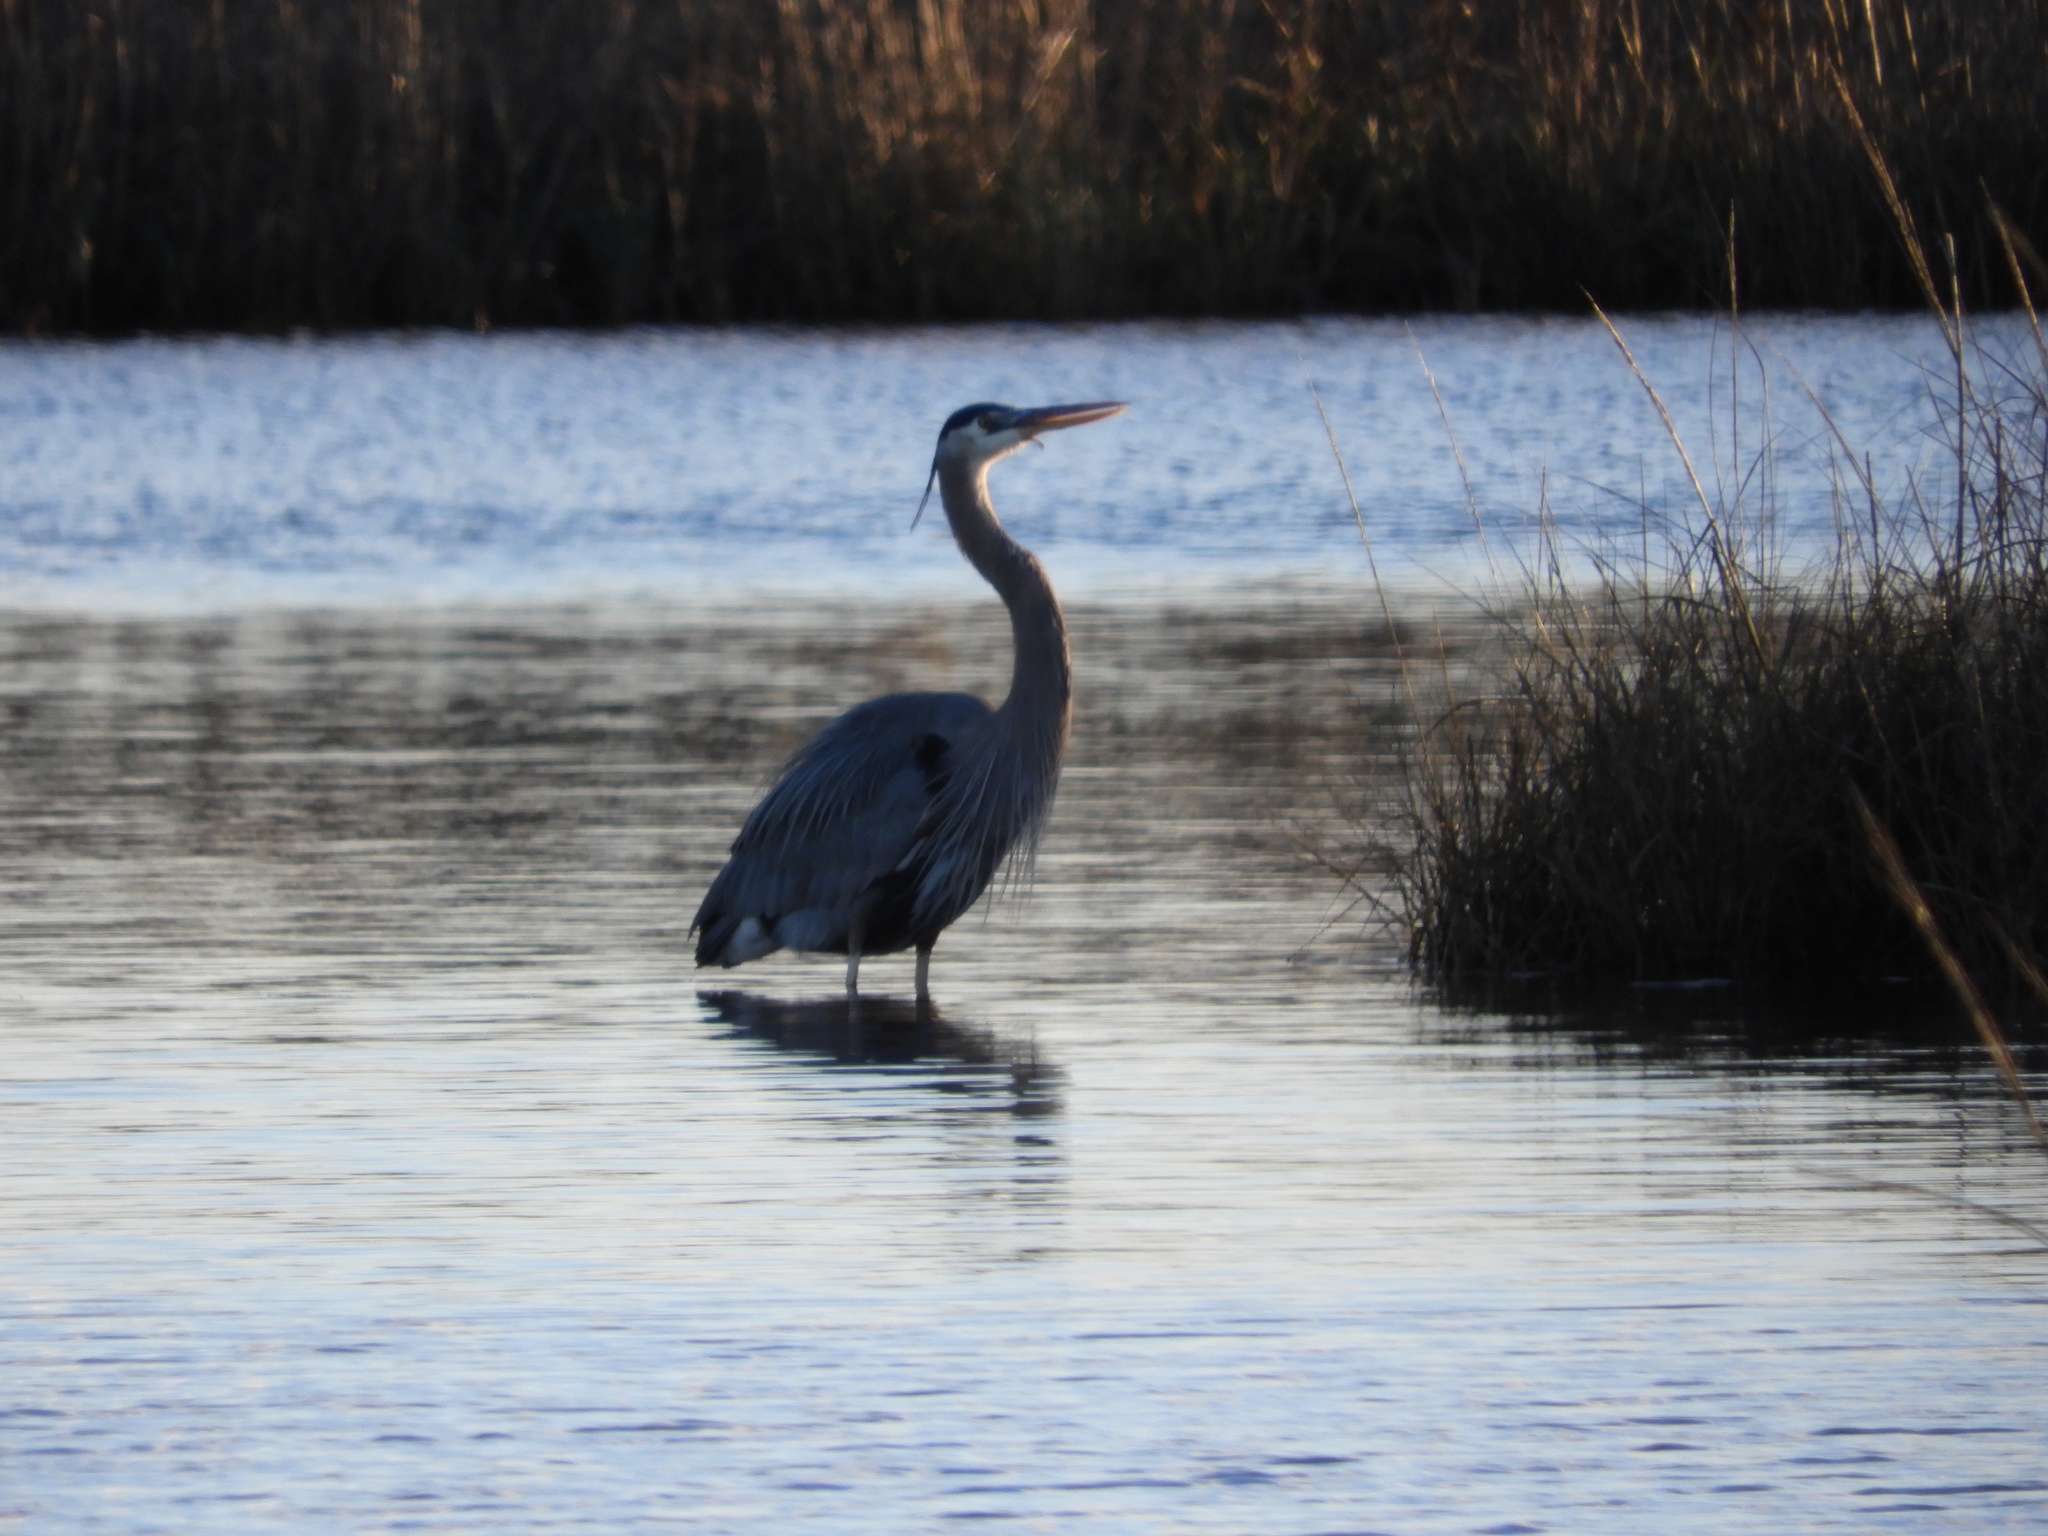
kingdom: Animalia
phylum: Chordata
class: Aves
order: Pelecaniformes
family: Ardeidae
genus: Ardea
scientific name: Ardea herodias
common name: Great blue heron
